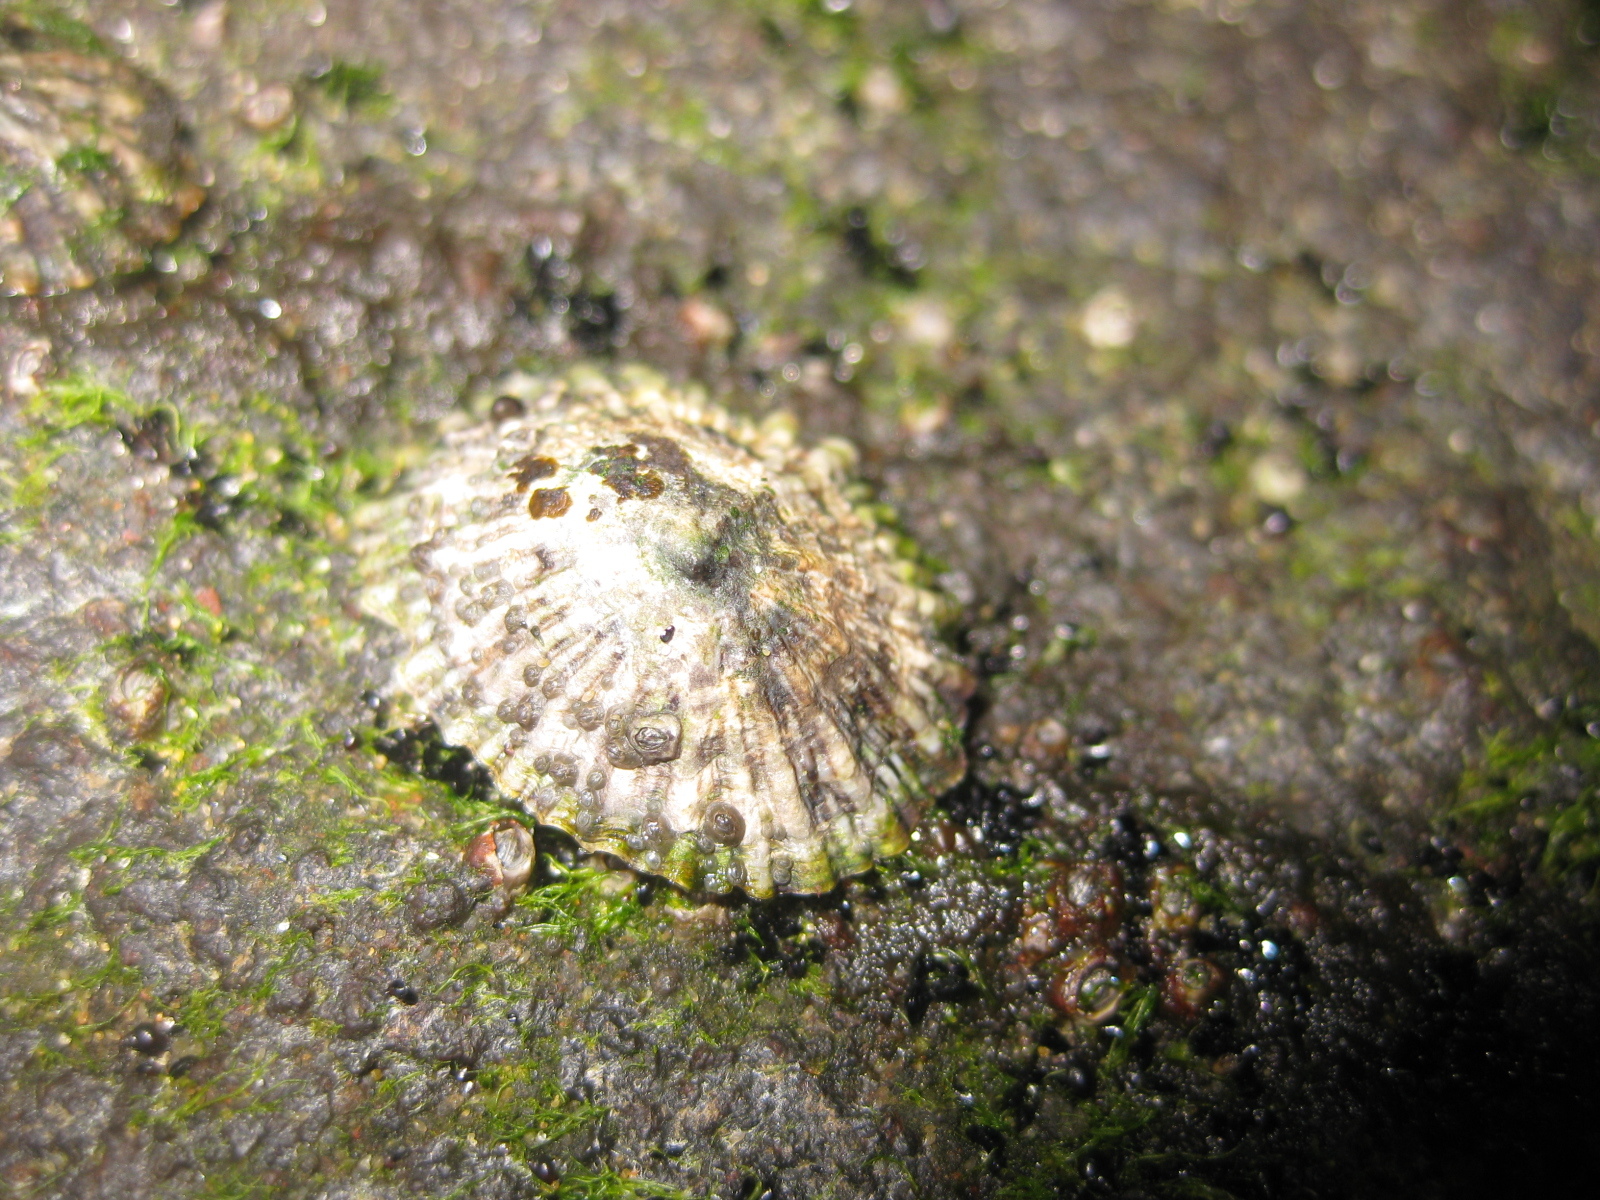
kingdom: Animalia
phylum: Mollusca
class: Gastropoda
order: Siphonariida
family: Siphonariidae
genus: Siphonaria
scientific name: Siphonaria australis
